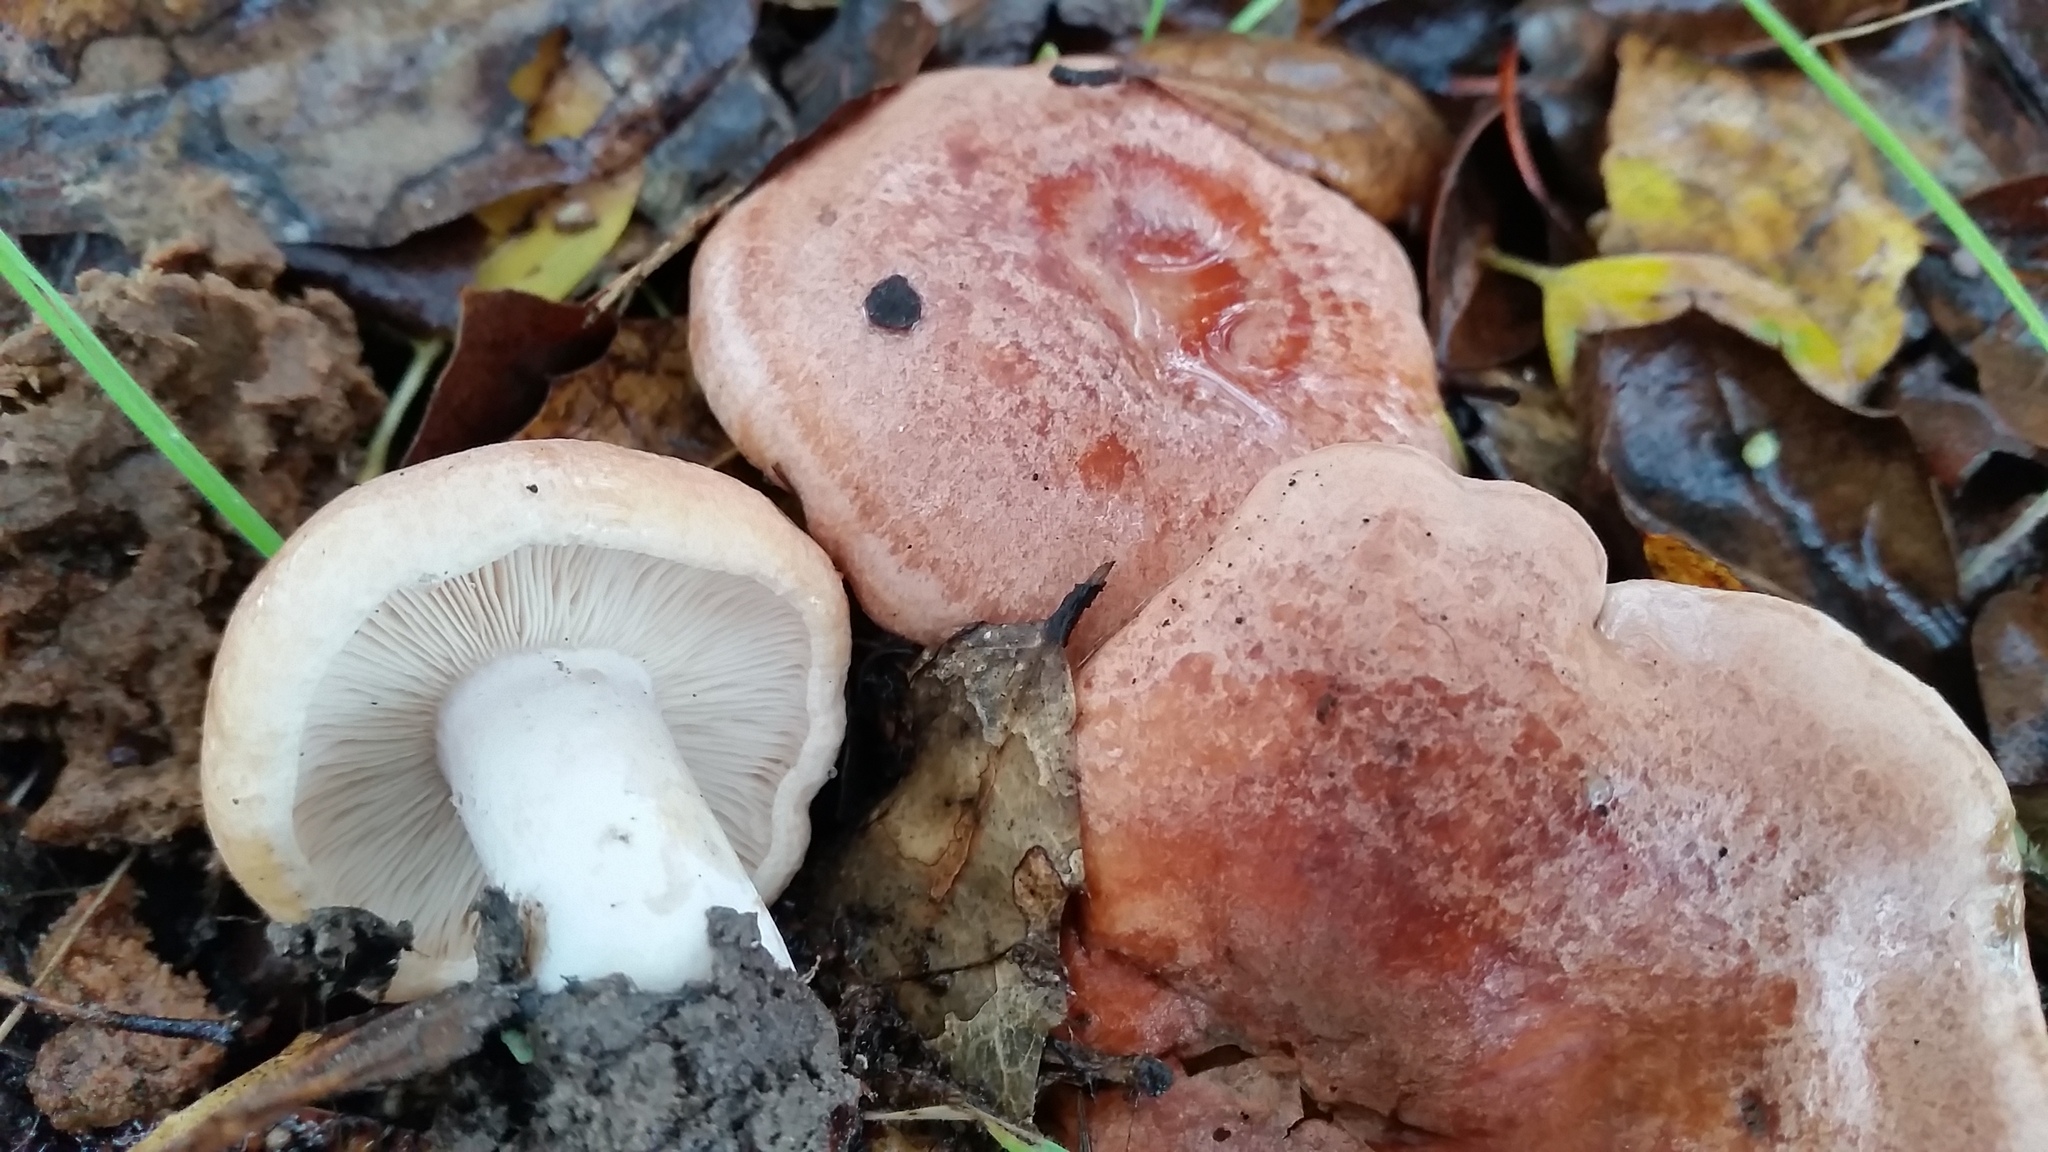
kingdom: Fungi
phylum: Basidiomycota
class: Agaricomycetes
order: Russulales
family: Russulaceae
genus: Lactarius
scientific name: Lactarius xanthogalactus
